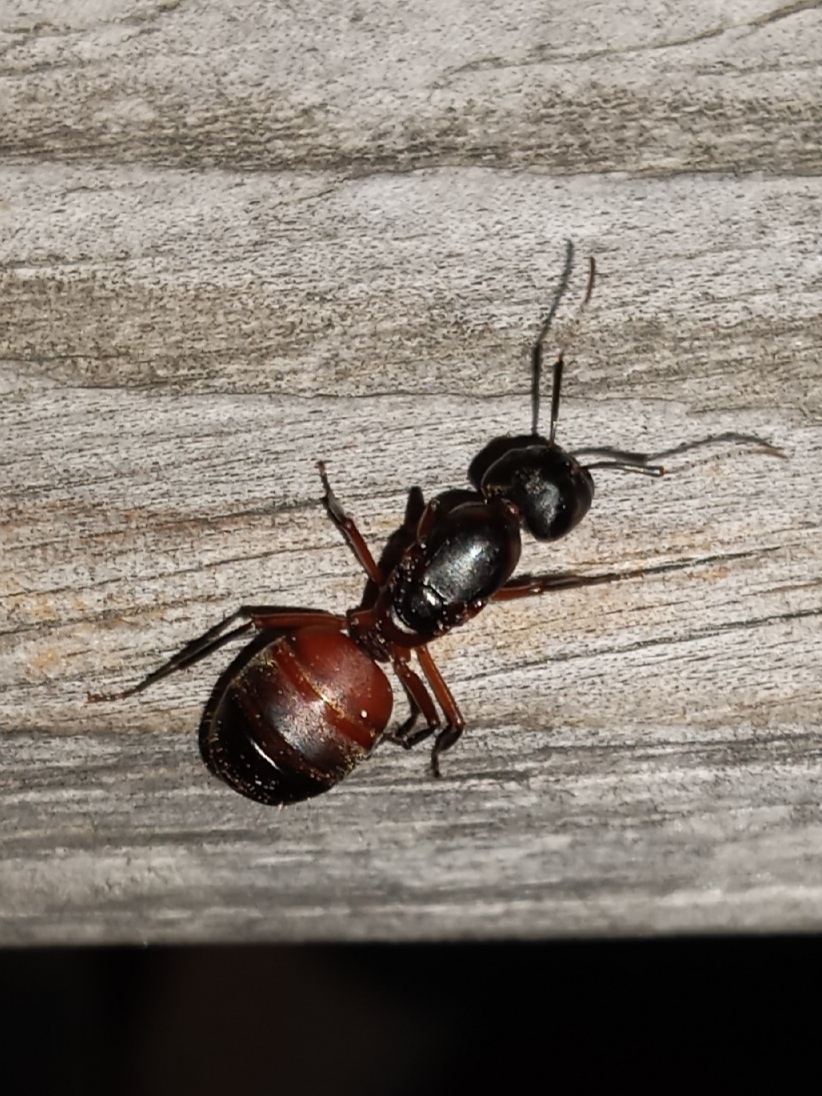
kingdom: Animalia
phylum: Arthropoda
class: Insecta
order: Hymenoptera
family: Formicidae
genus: Camponotus
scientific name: Camponotus chromaiodes
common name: Red carpenter ant
